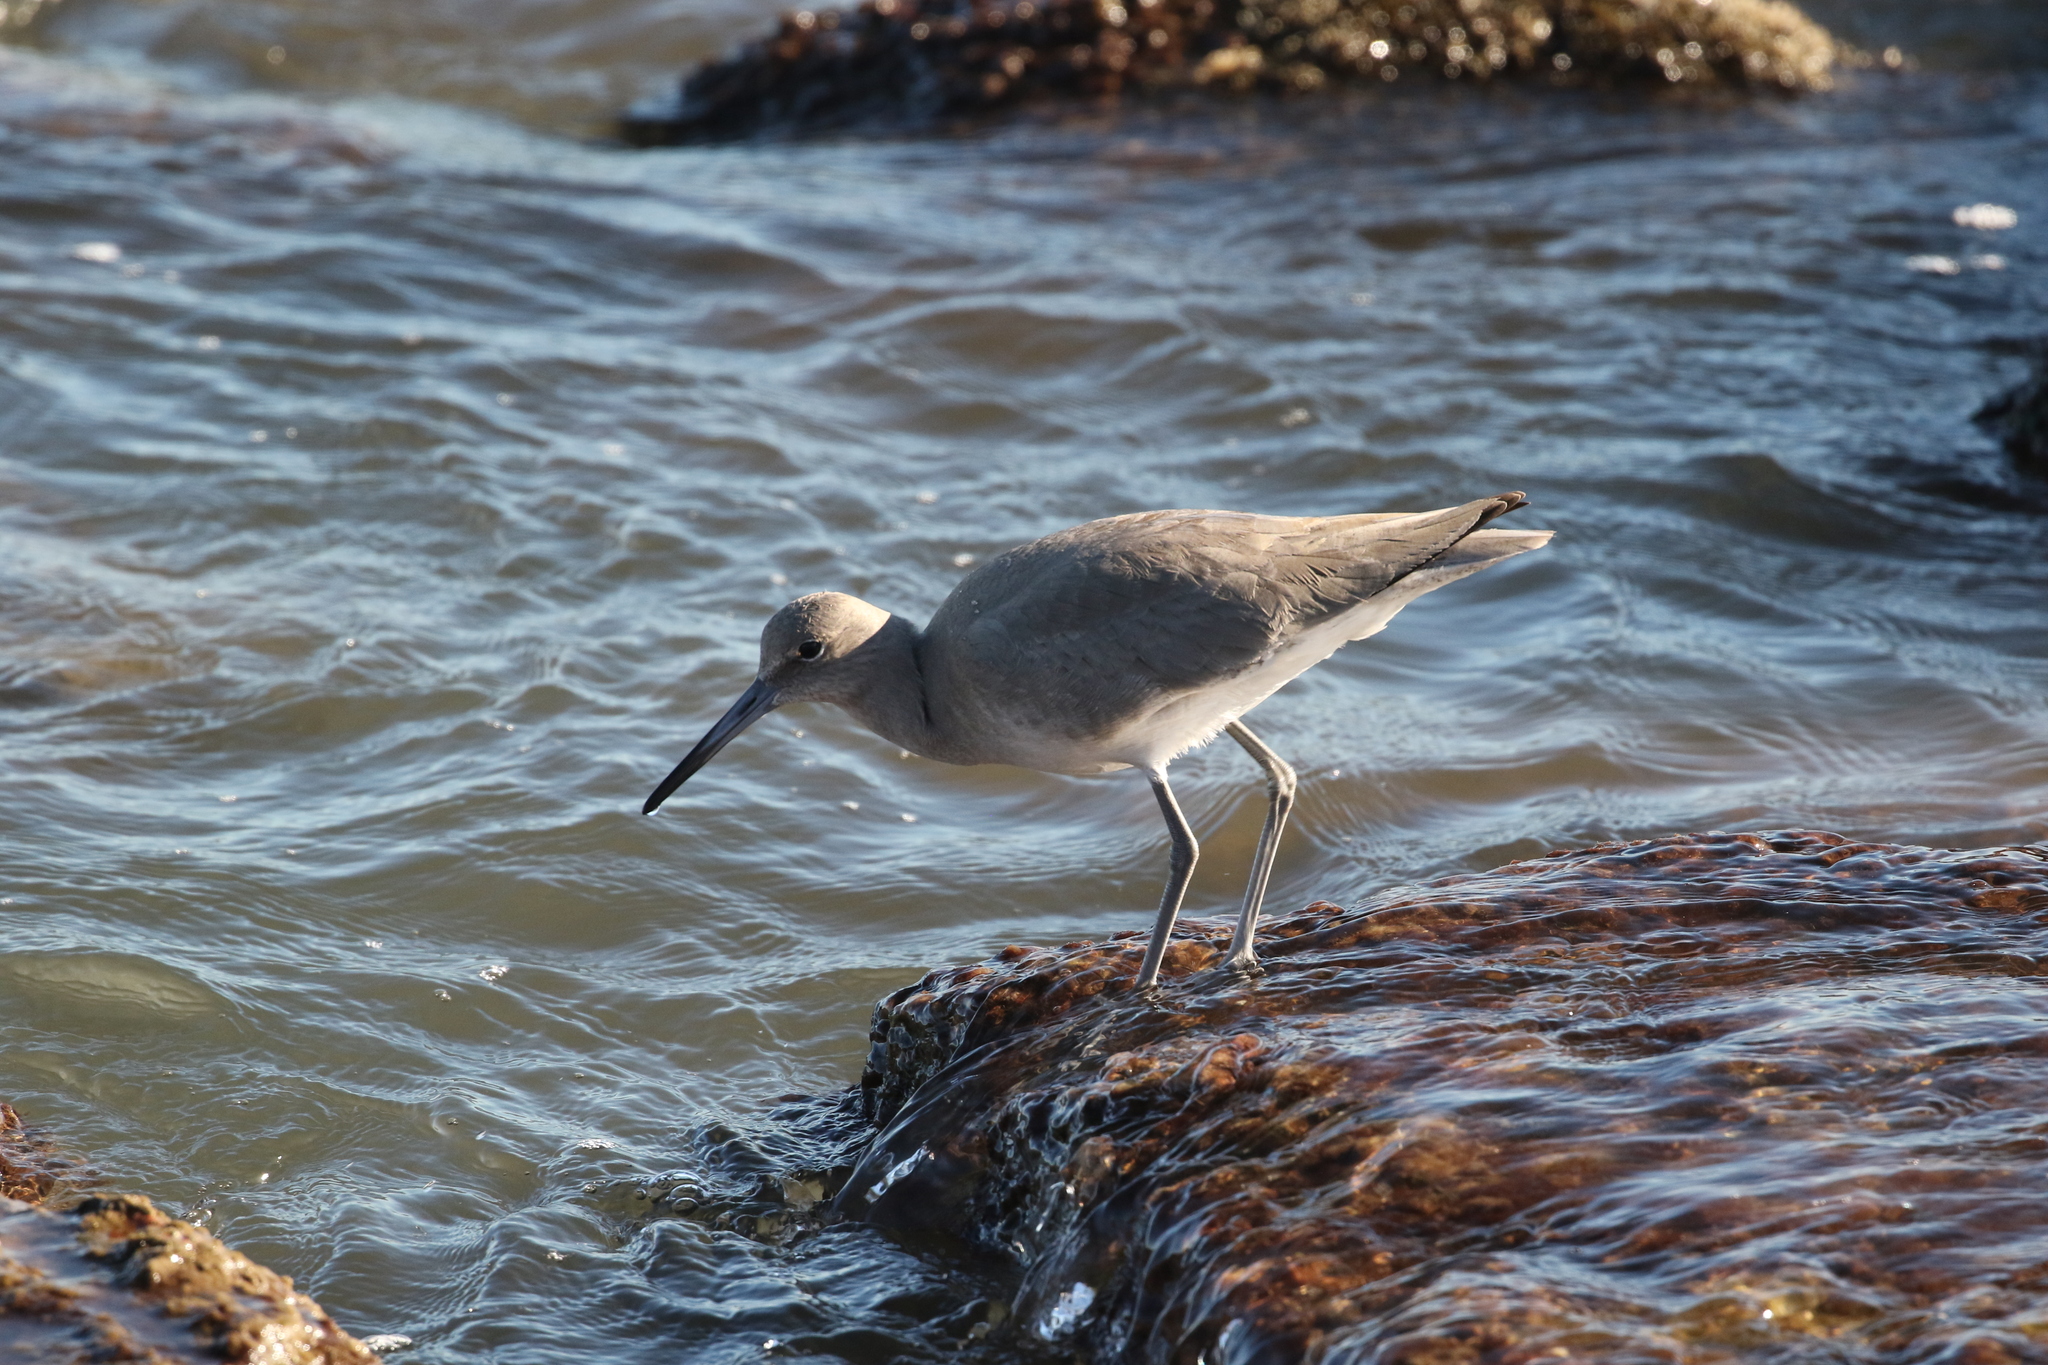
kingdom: Animalia
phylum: Chordata
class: Aves
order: Charadriiformes
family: Scolopacidae
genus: Tringa
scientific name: Tringa semipalmata
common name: Willet
